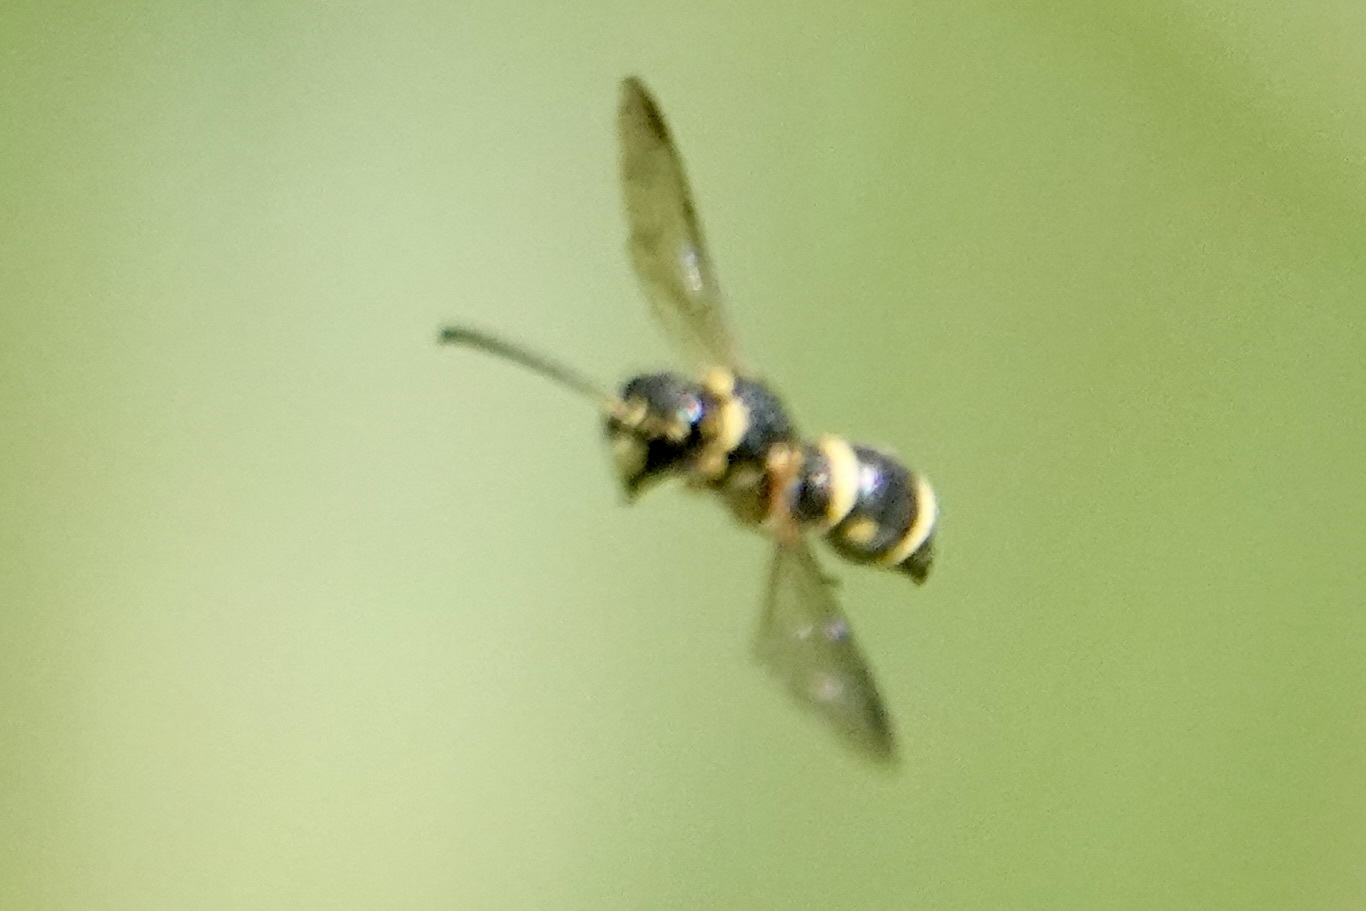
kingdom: Animalia
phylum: Arthropoda
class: Insecta
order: Hymenoptera
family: Eumenidae
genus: Parancistrocerus
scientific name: Parancistrocerus
